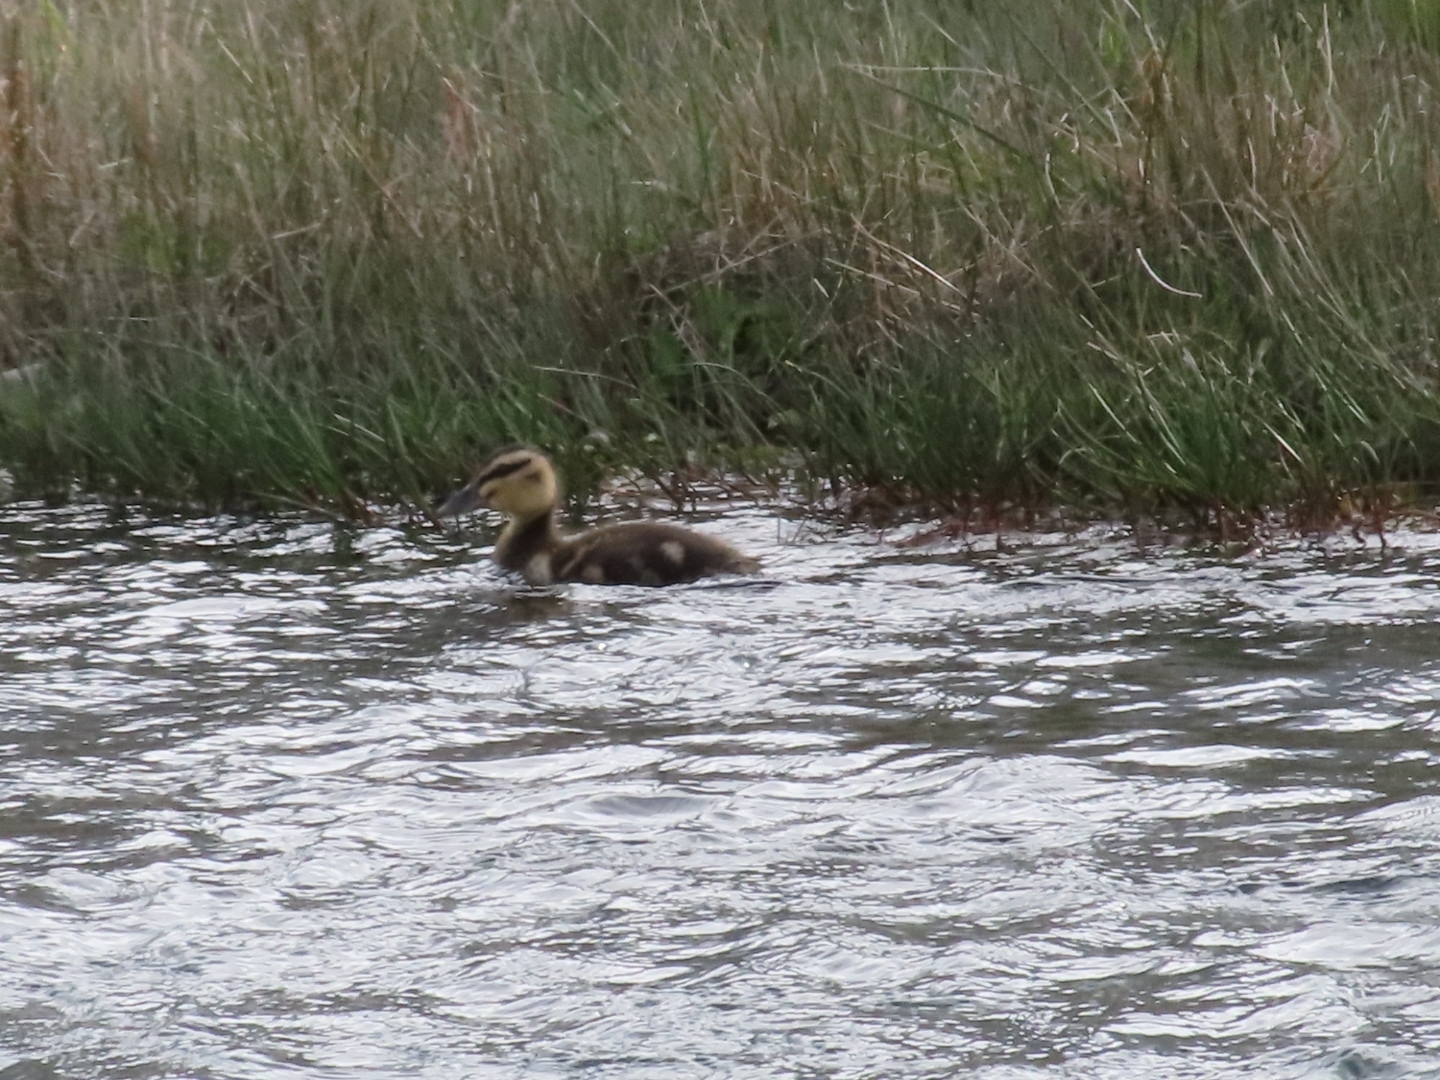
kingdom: Animalia
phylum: Chordata
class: Aves
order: Anseriformes
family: Anatidae
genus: Anas
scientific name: Anas
